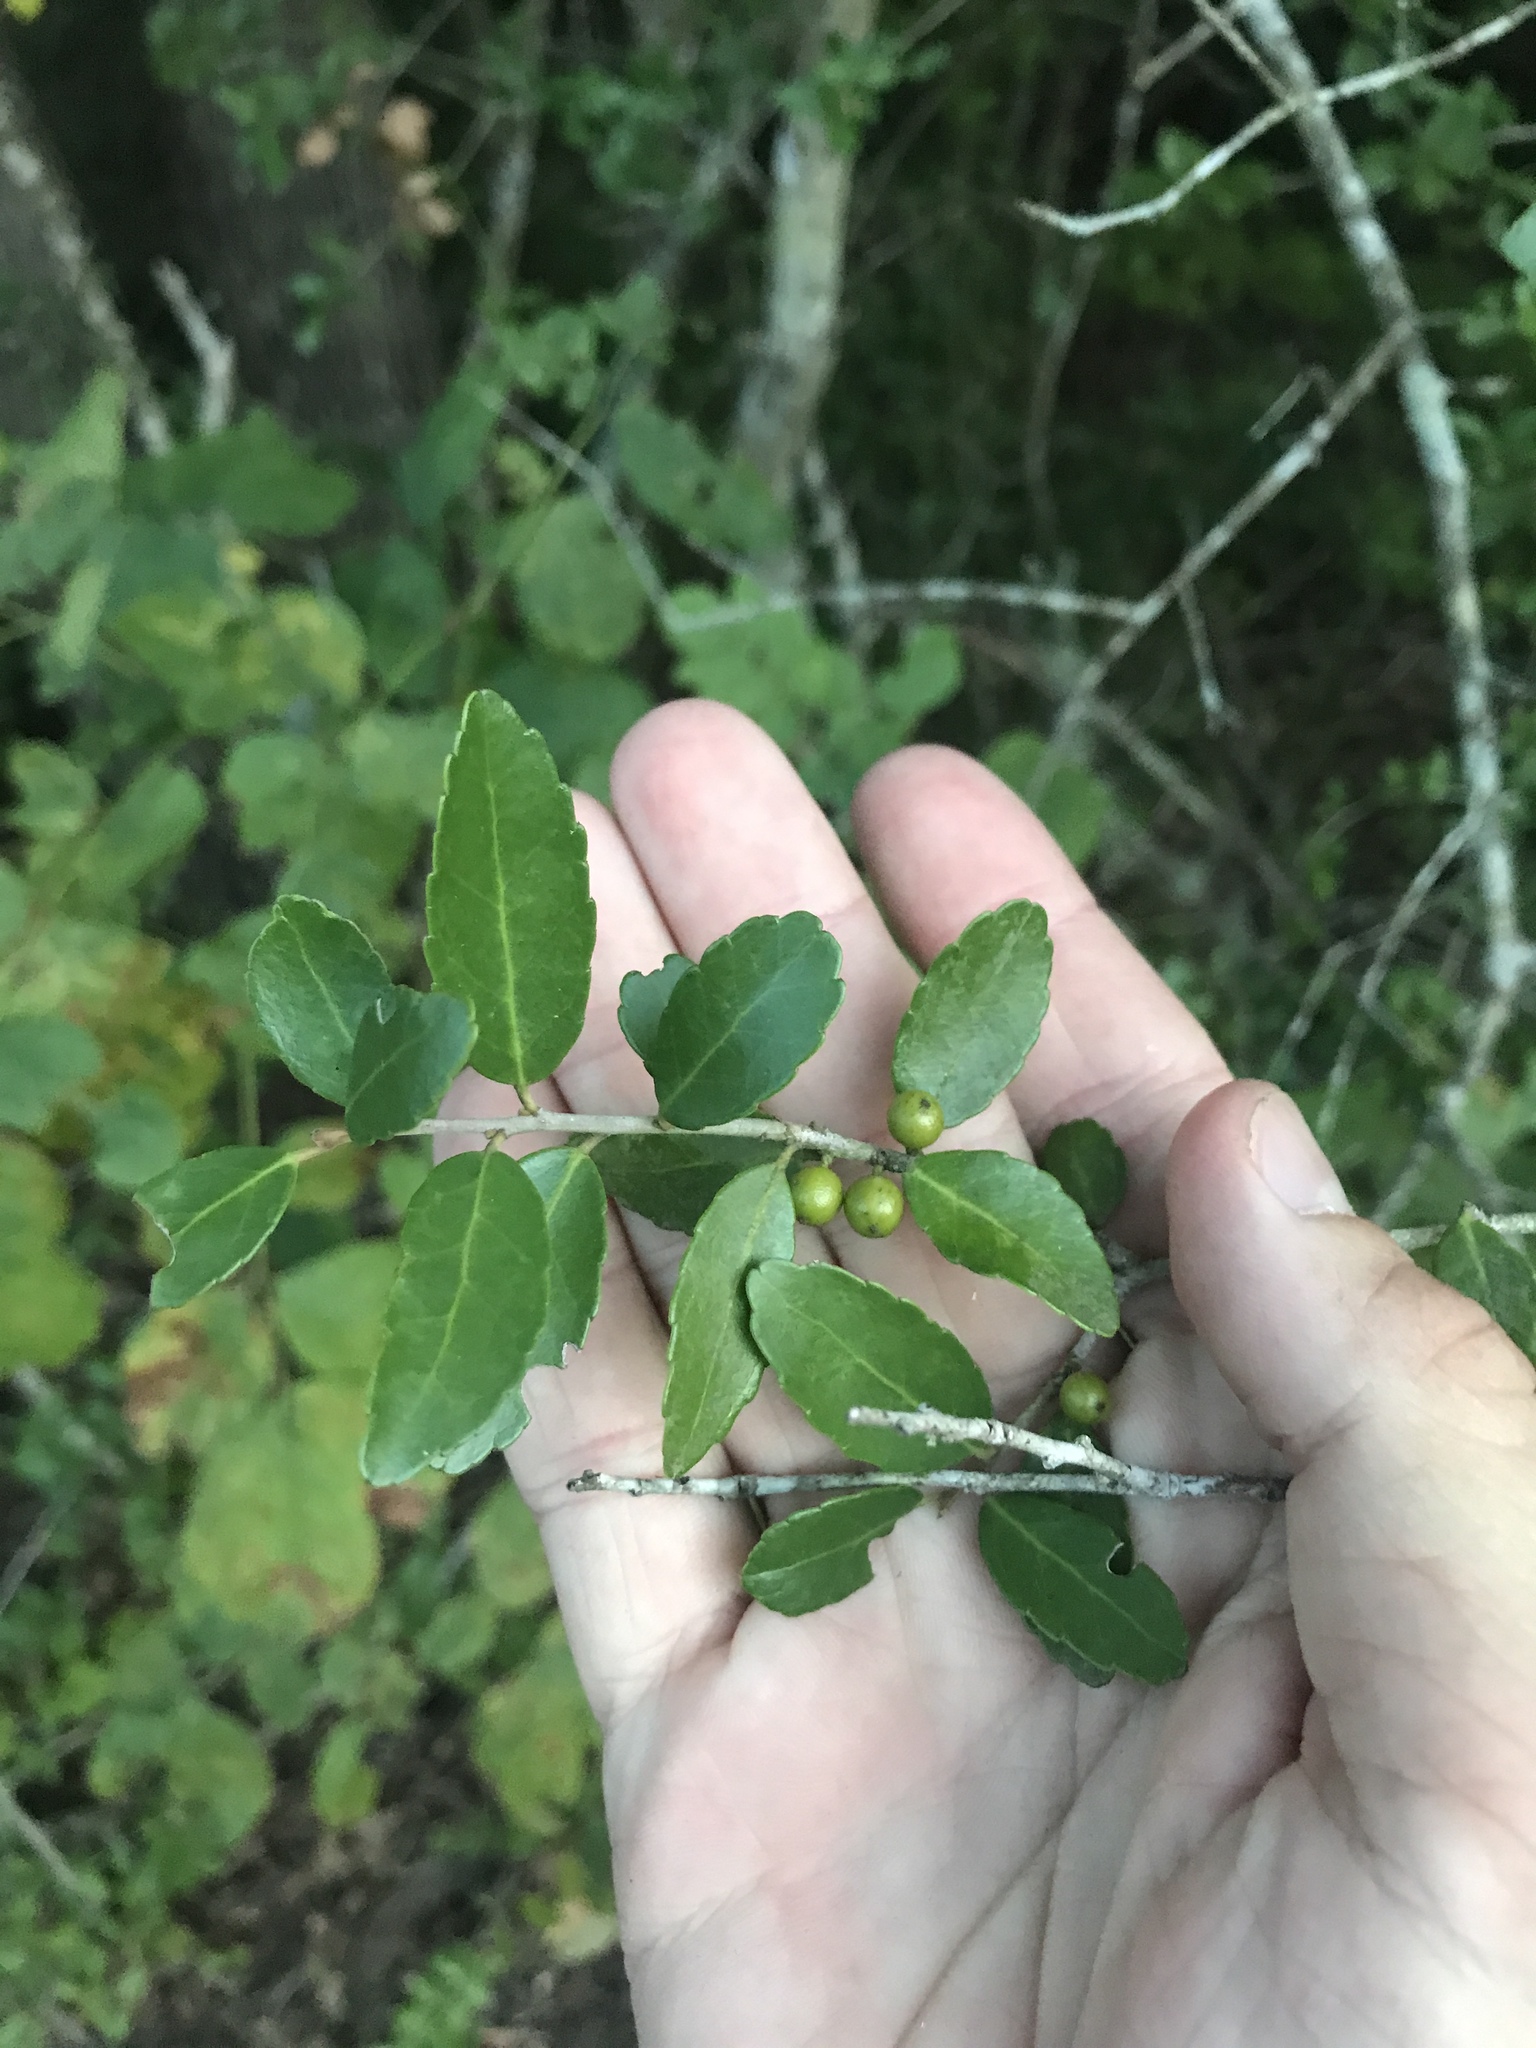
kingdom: Plantae
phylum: Tracheophyta
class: Magnoliopsida
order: Aquifoliales
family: Aquifoliaceae
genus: Ilex
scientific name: Ilex vomitoria
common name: Yaupon holly
